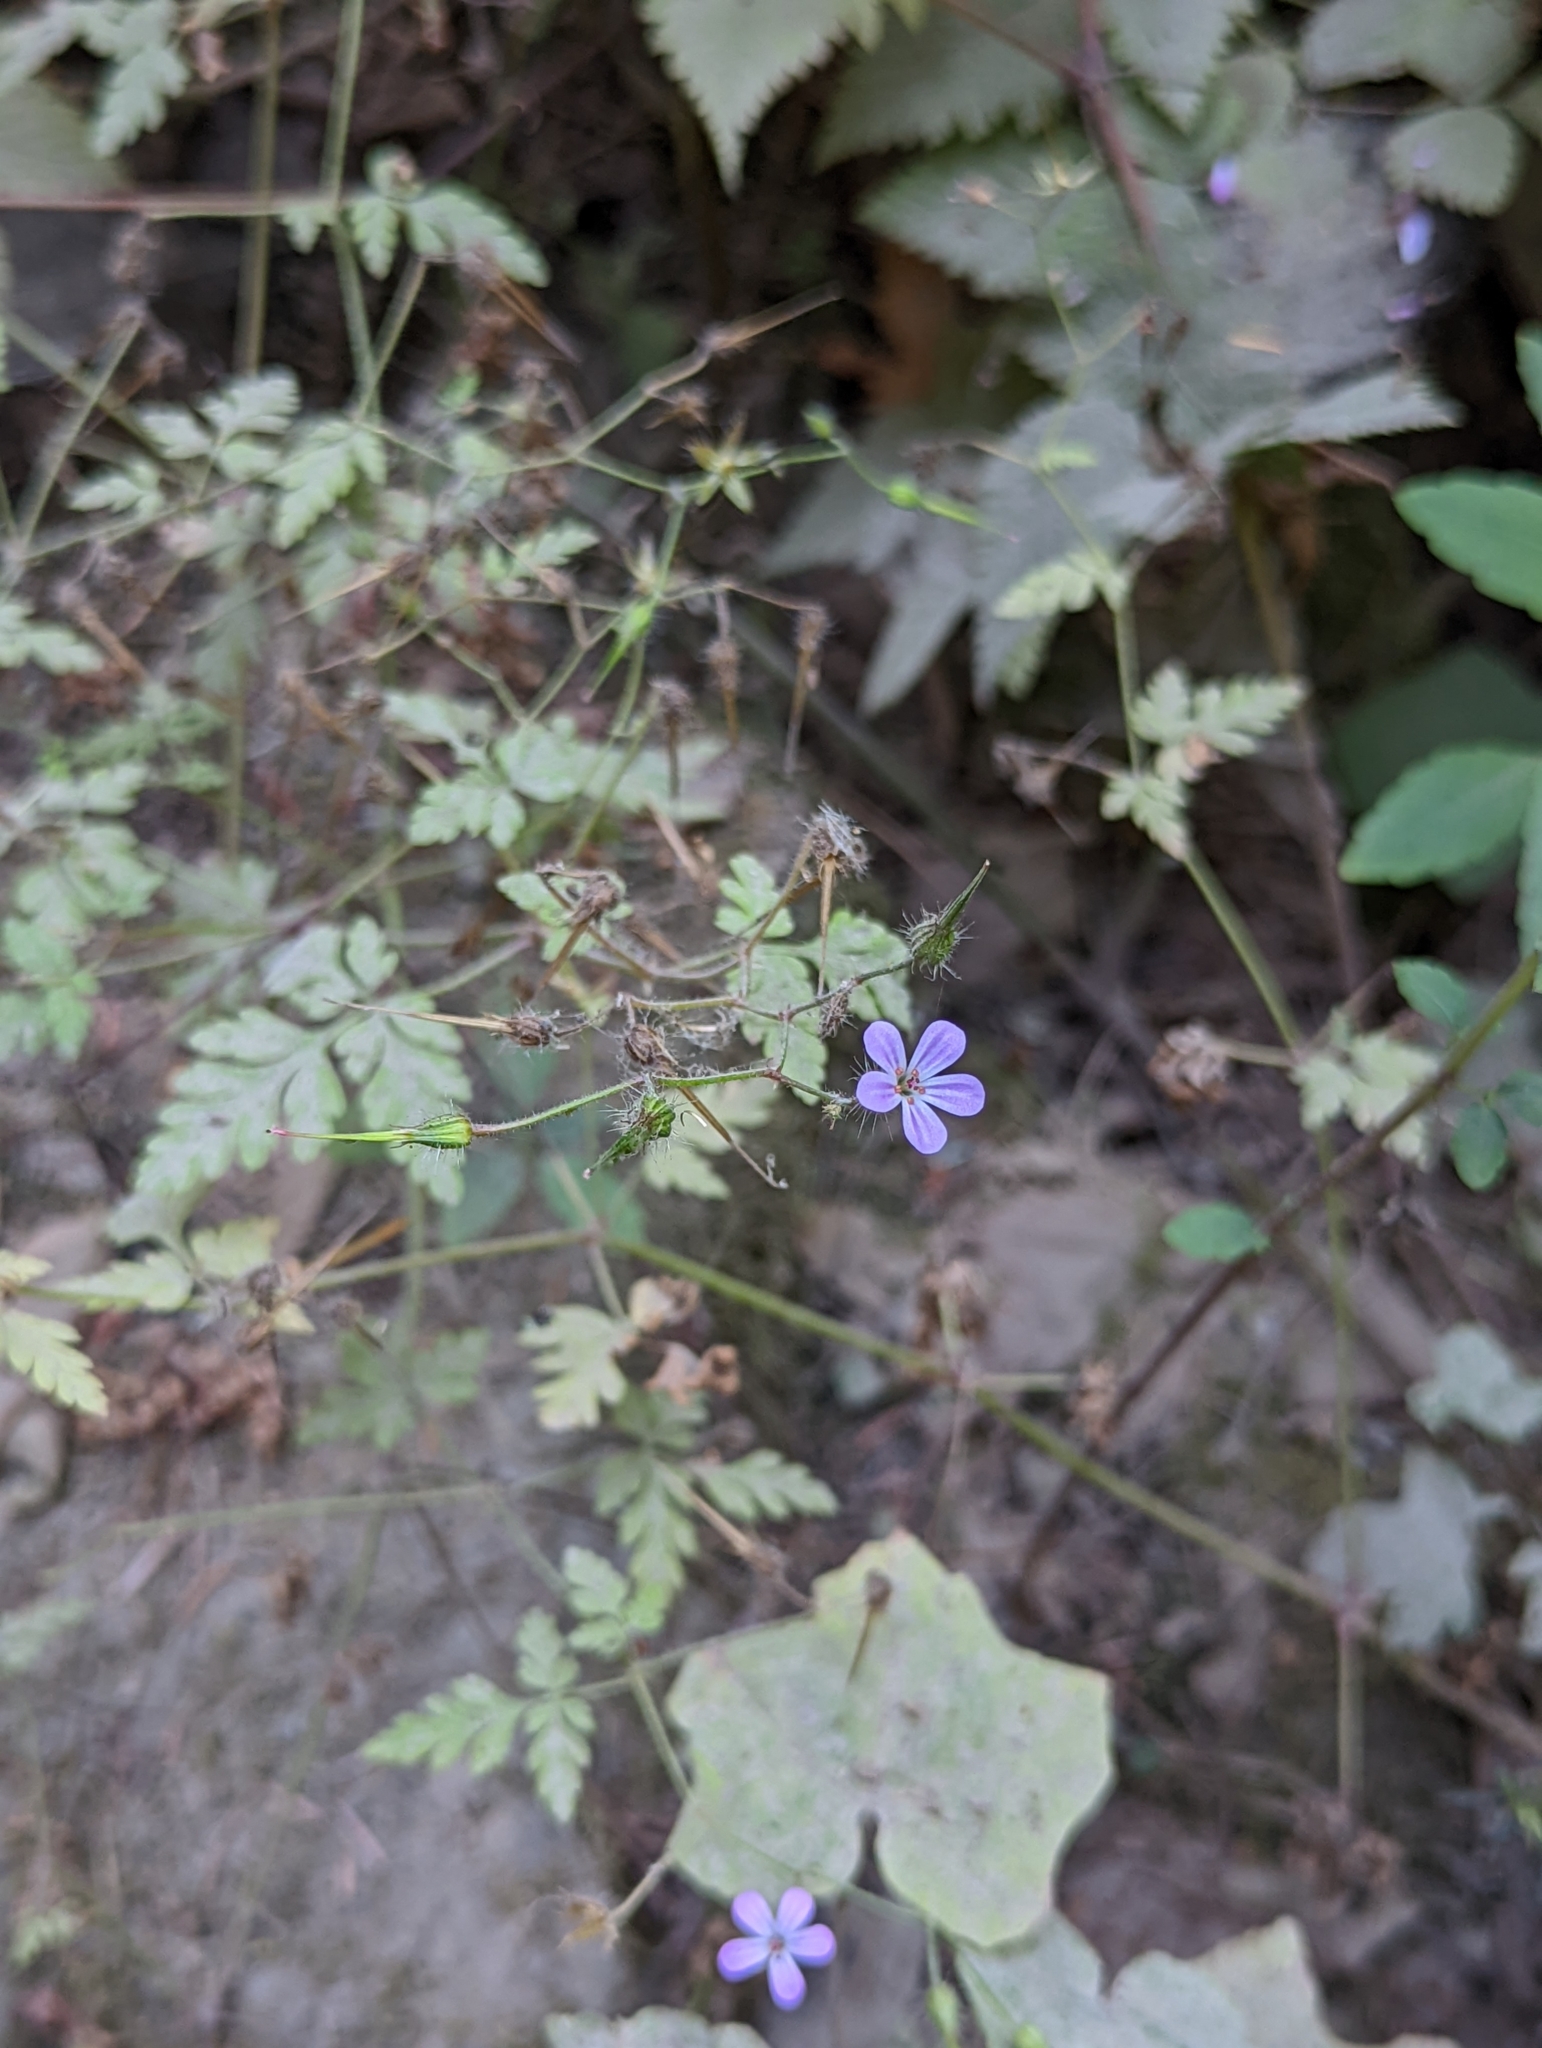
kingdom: Plantae
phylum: Tracheophyta
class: Magnoliopsida
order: Geraniales
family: Geraniaceae
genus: Geranium
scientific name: Geranium robertianum
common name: Herb-robert
